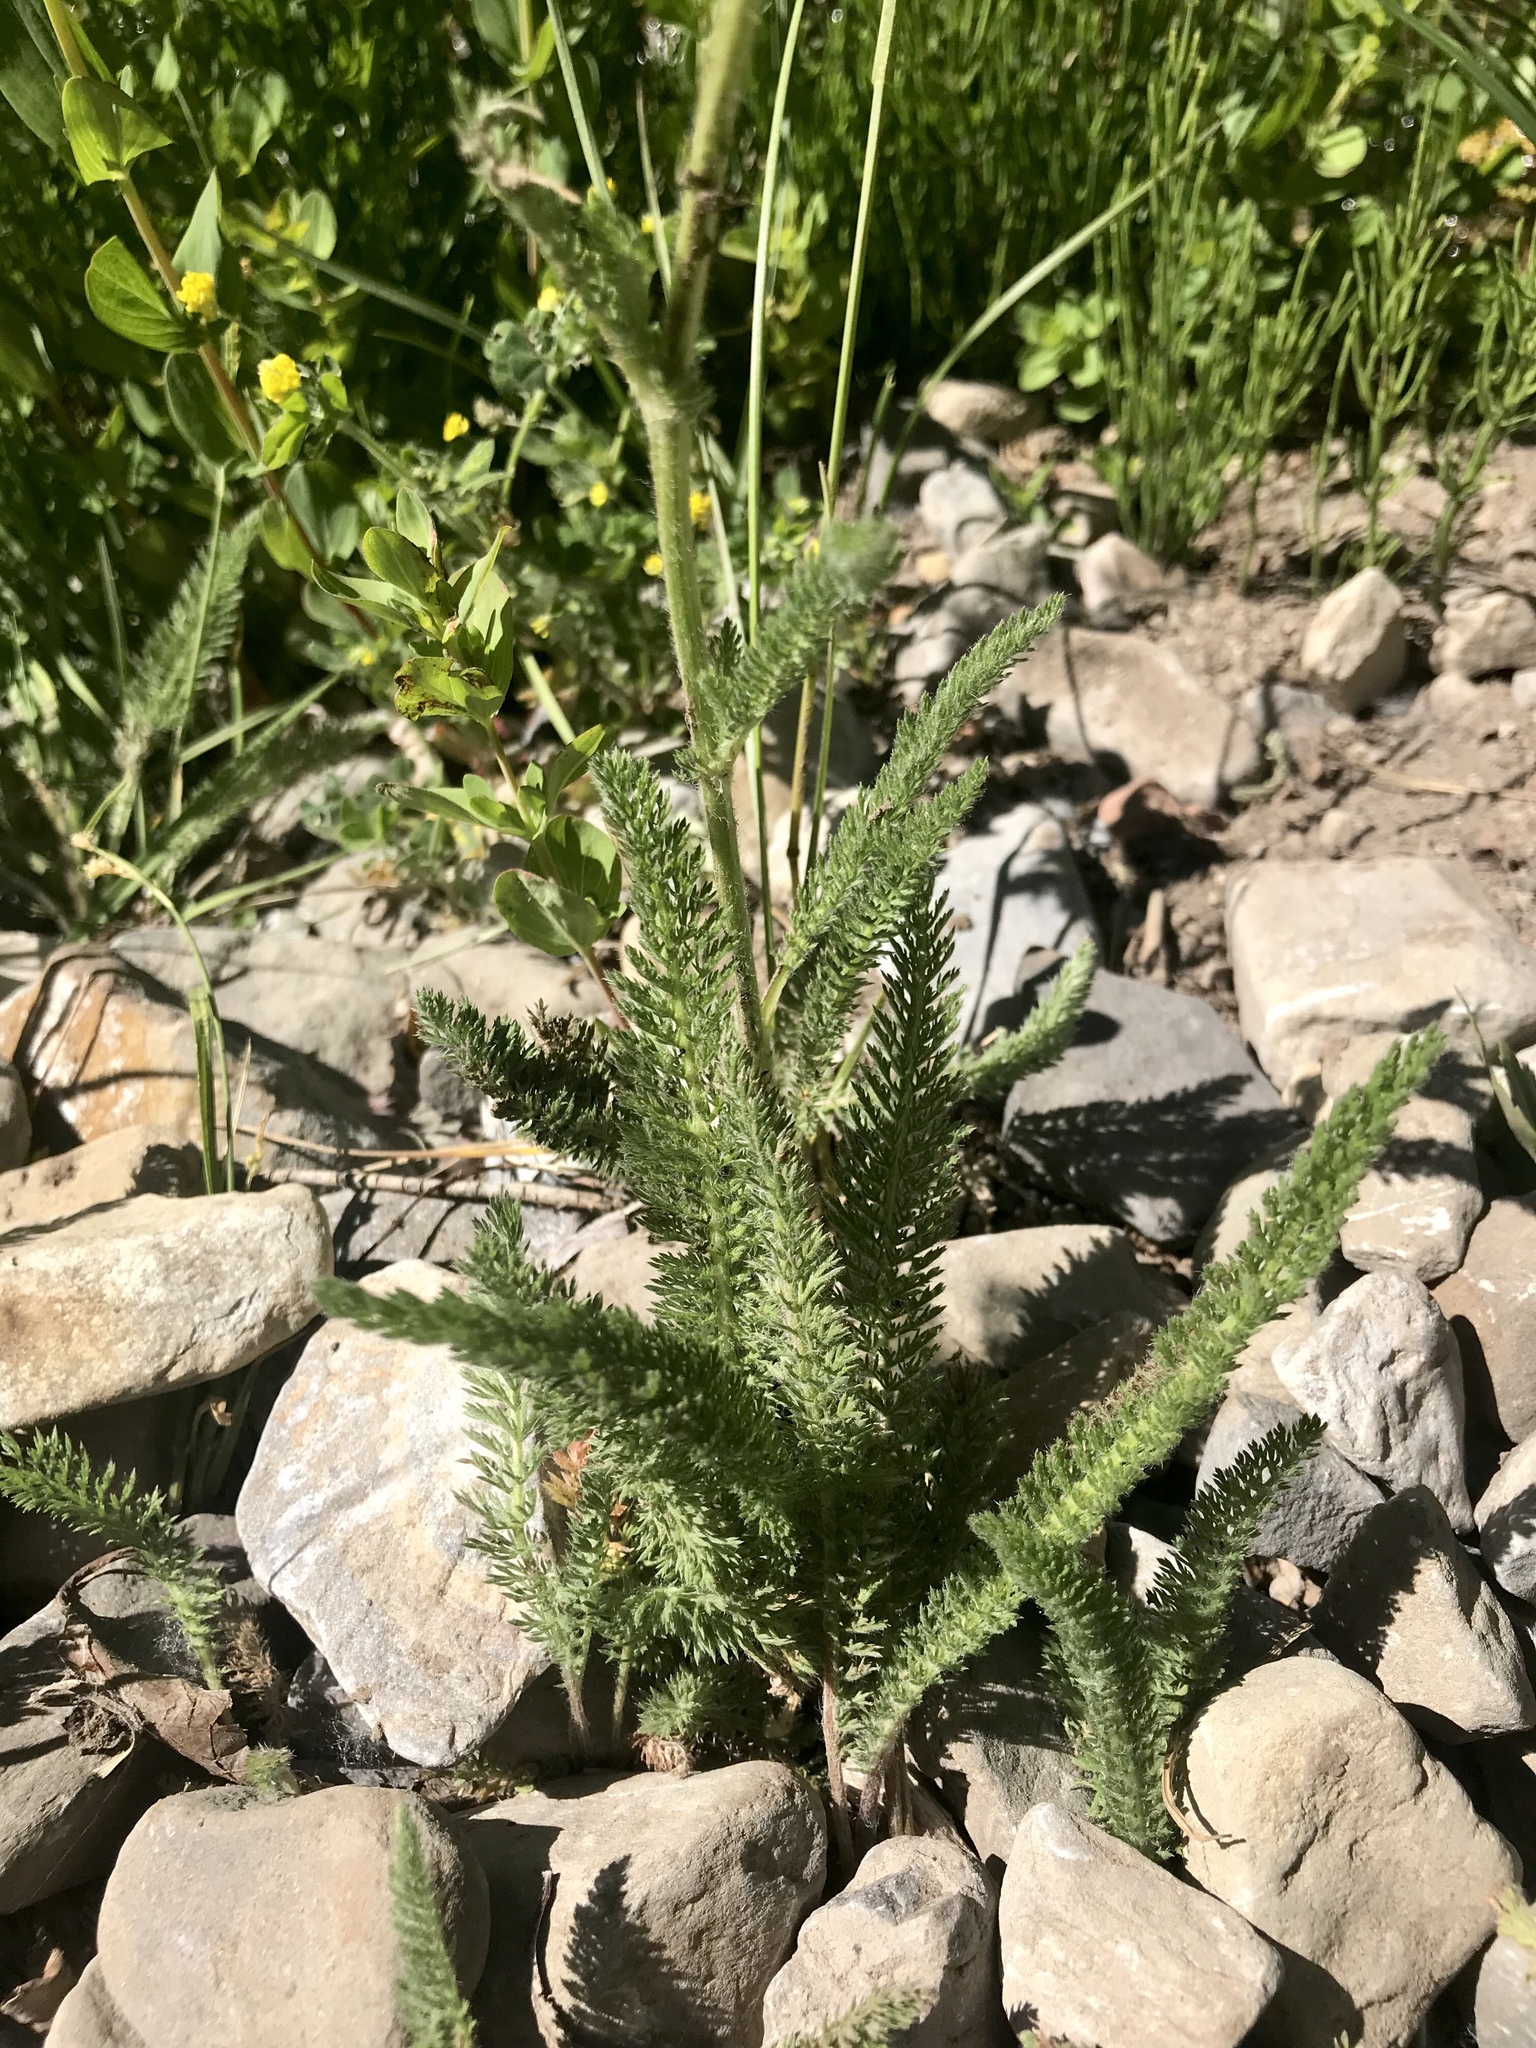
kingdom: Plantae
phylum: Tracheophyta
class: Magnoliopsida
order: Asterales
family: Asteraceae
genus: Achillea
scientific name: Achillea millefolium
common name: Yarrow
